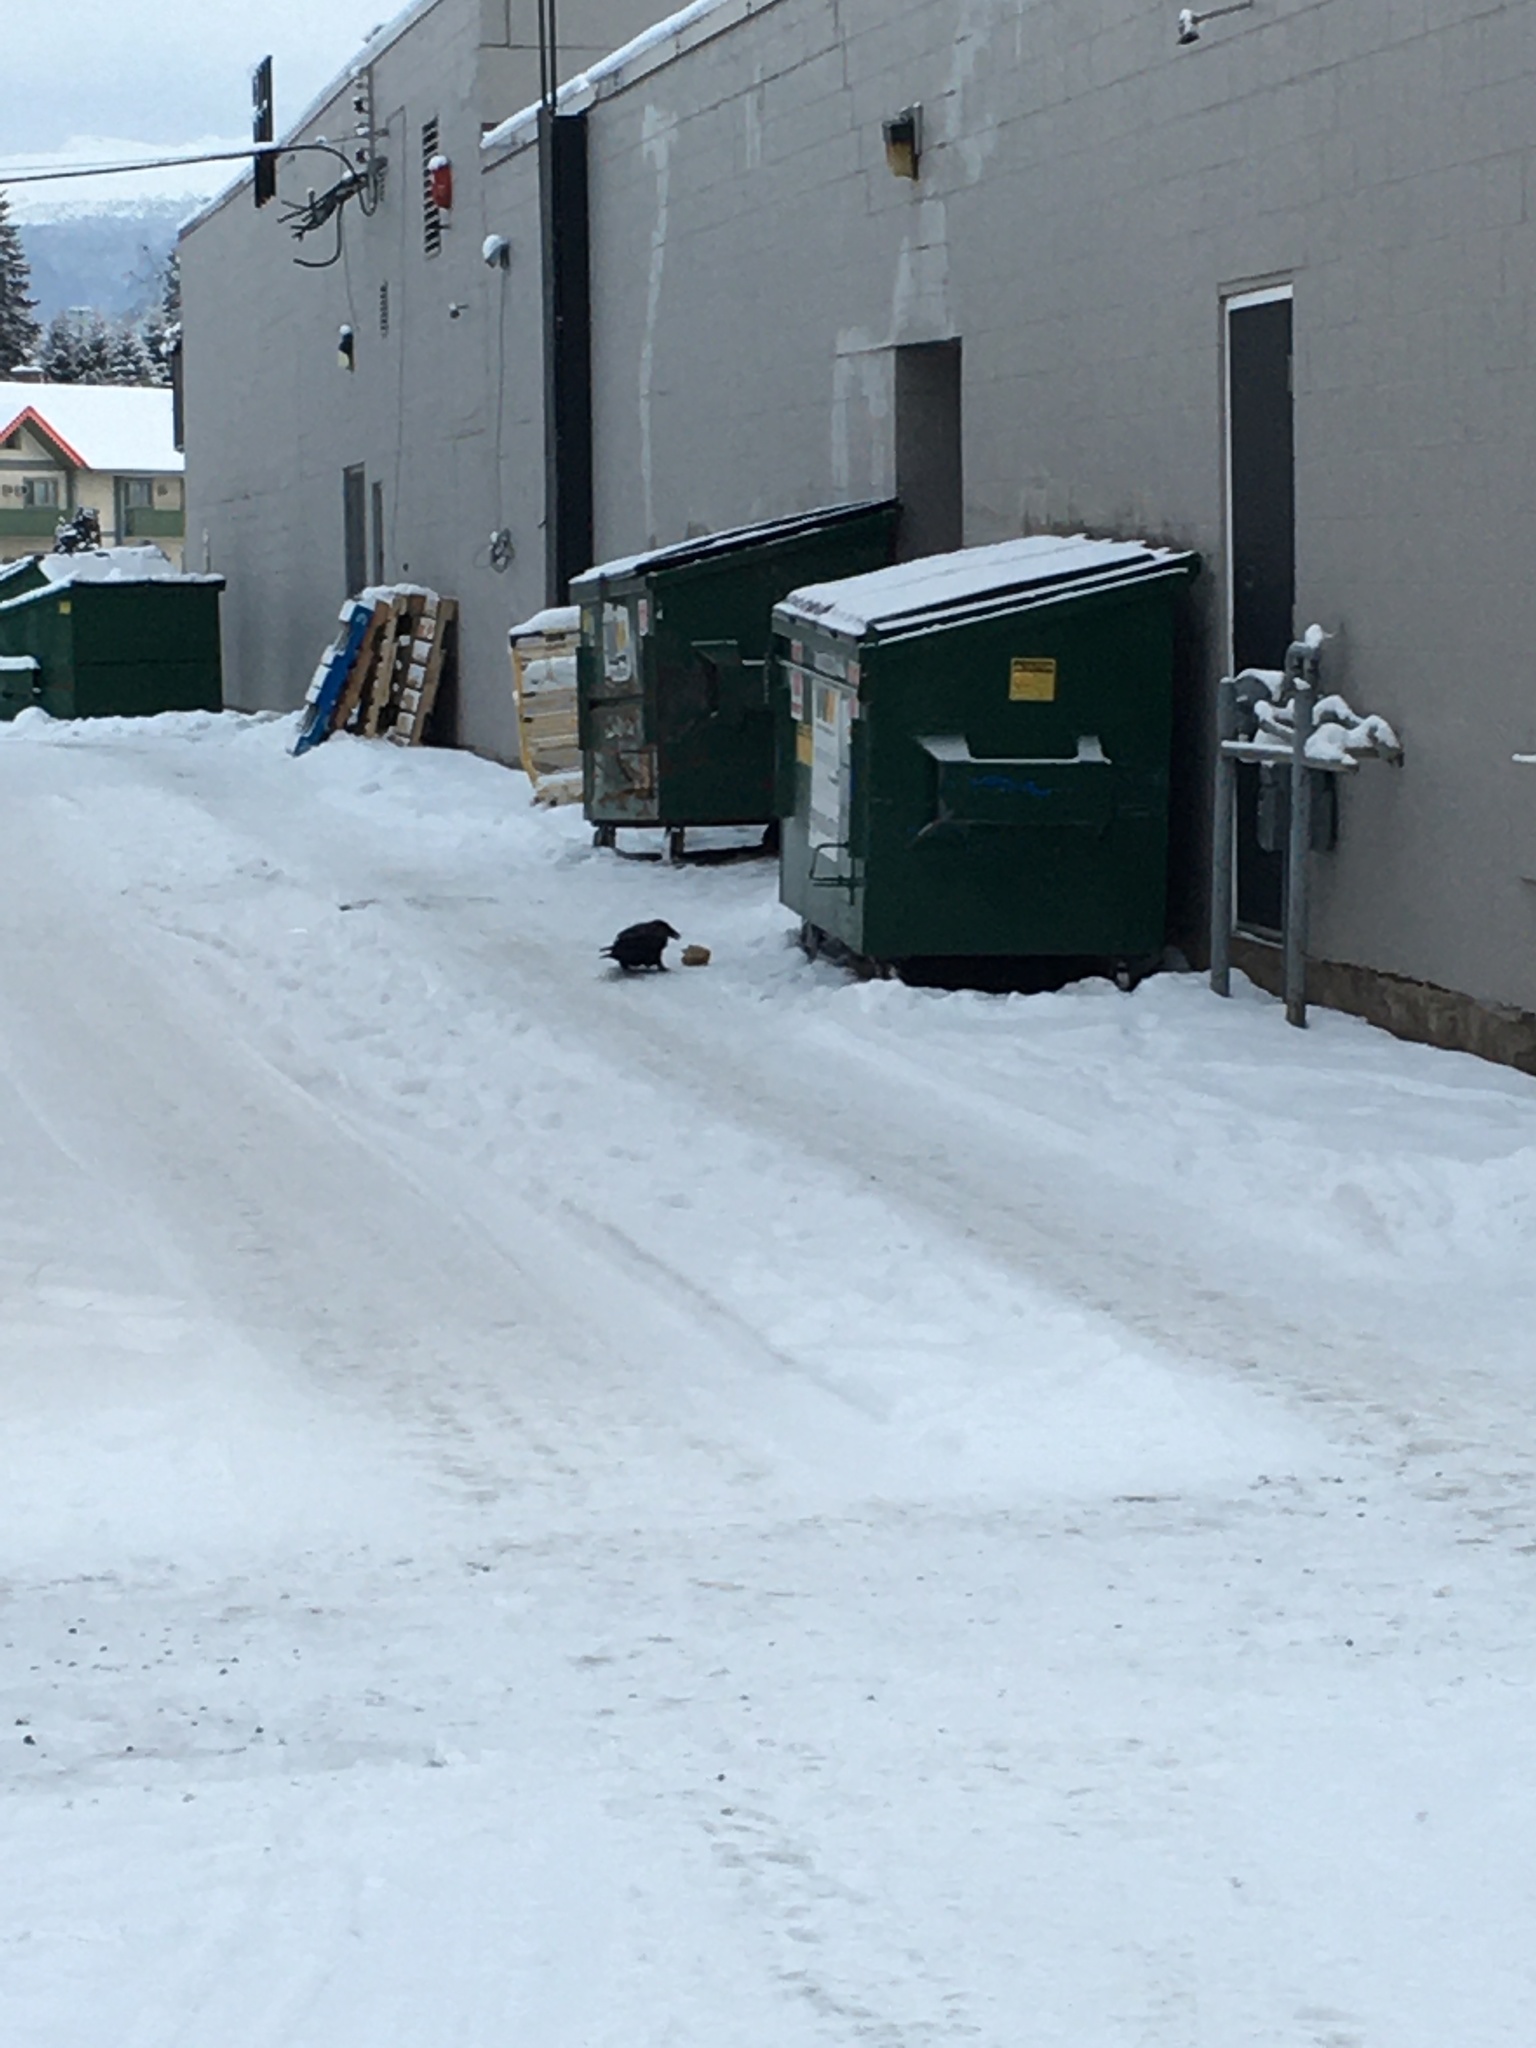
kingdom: Animalia
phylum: Chordata
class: Aves
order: Passeriformes
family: Corvidae
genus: Corvus
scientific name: Corvus corax
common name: Common raven
